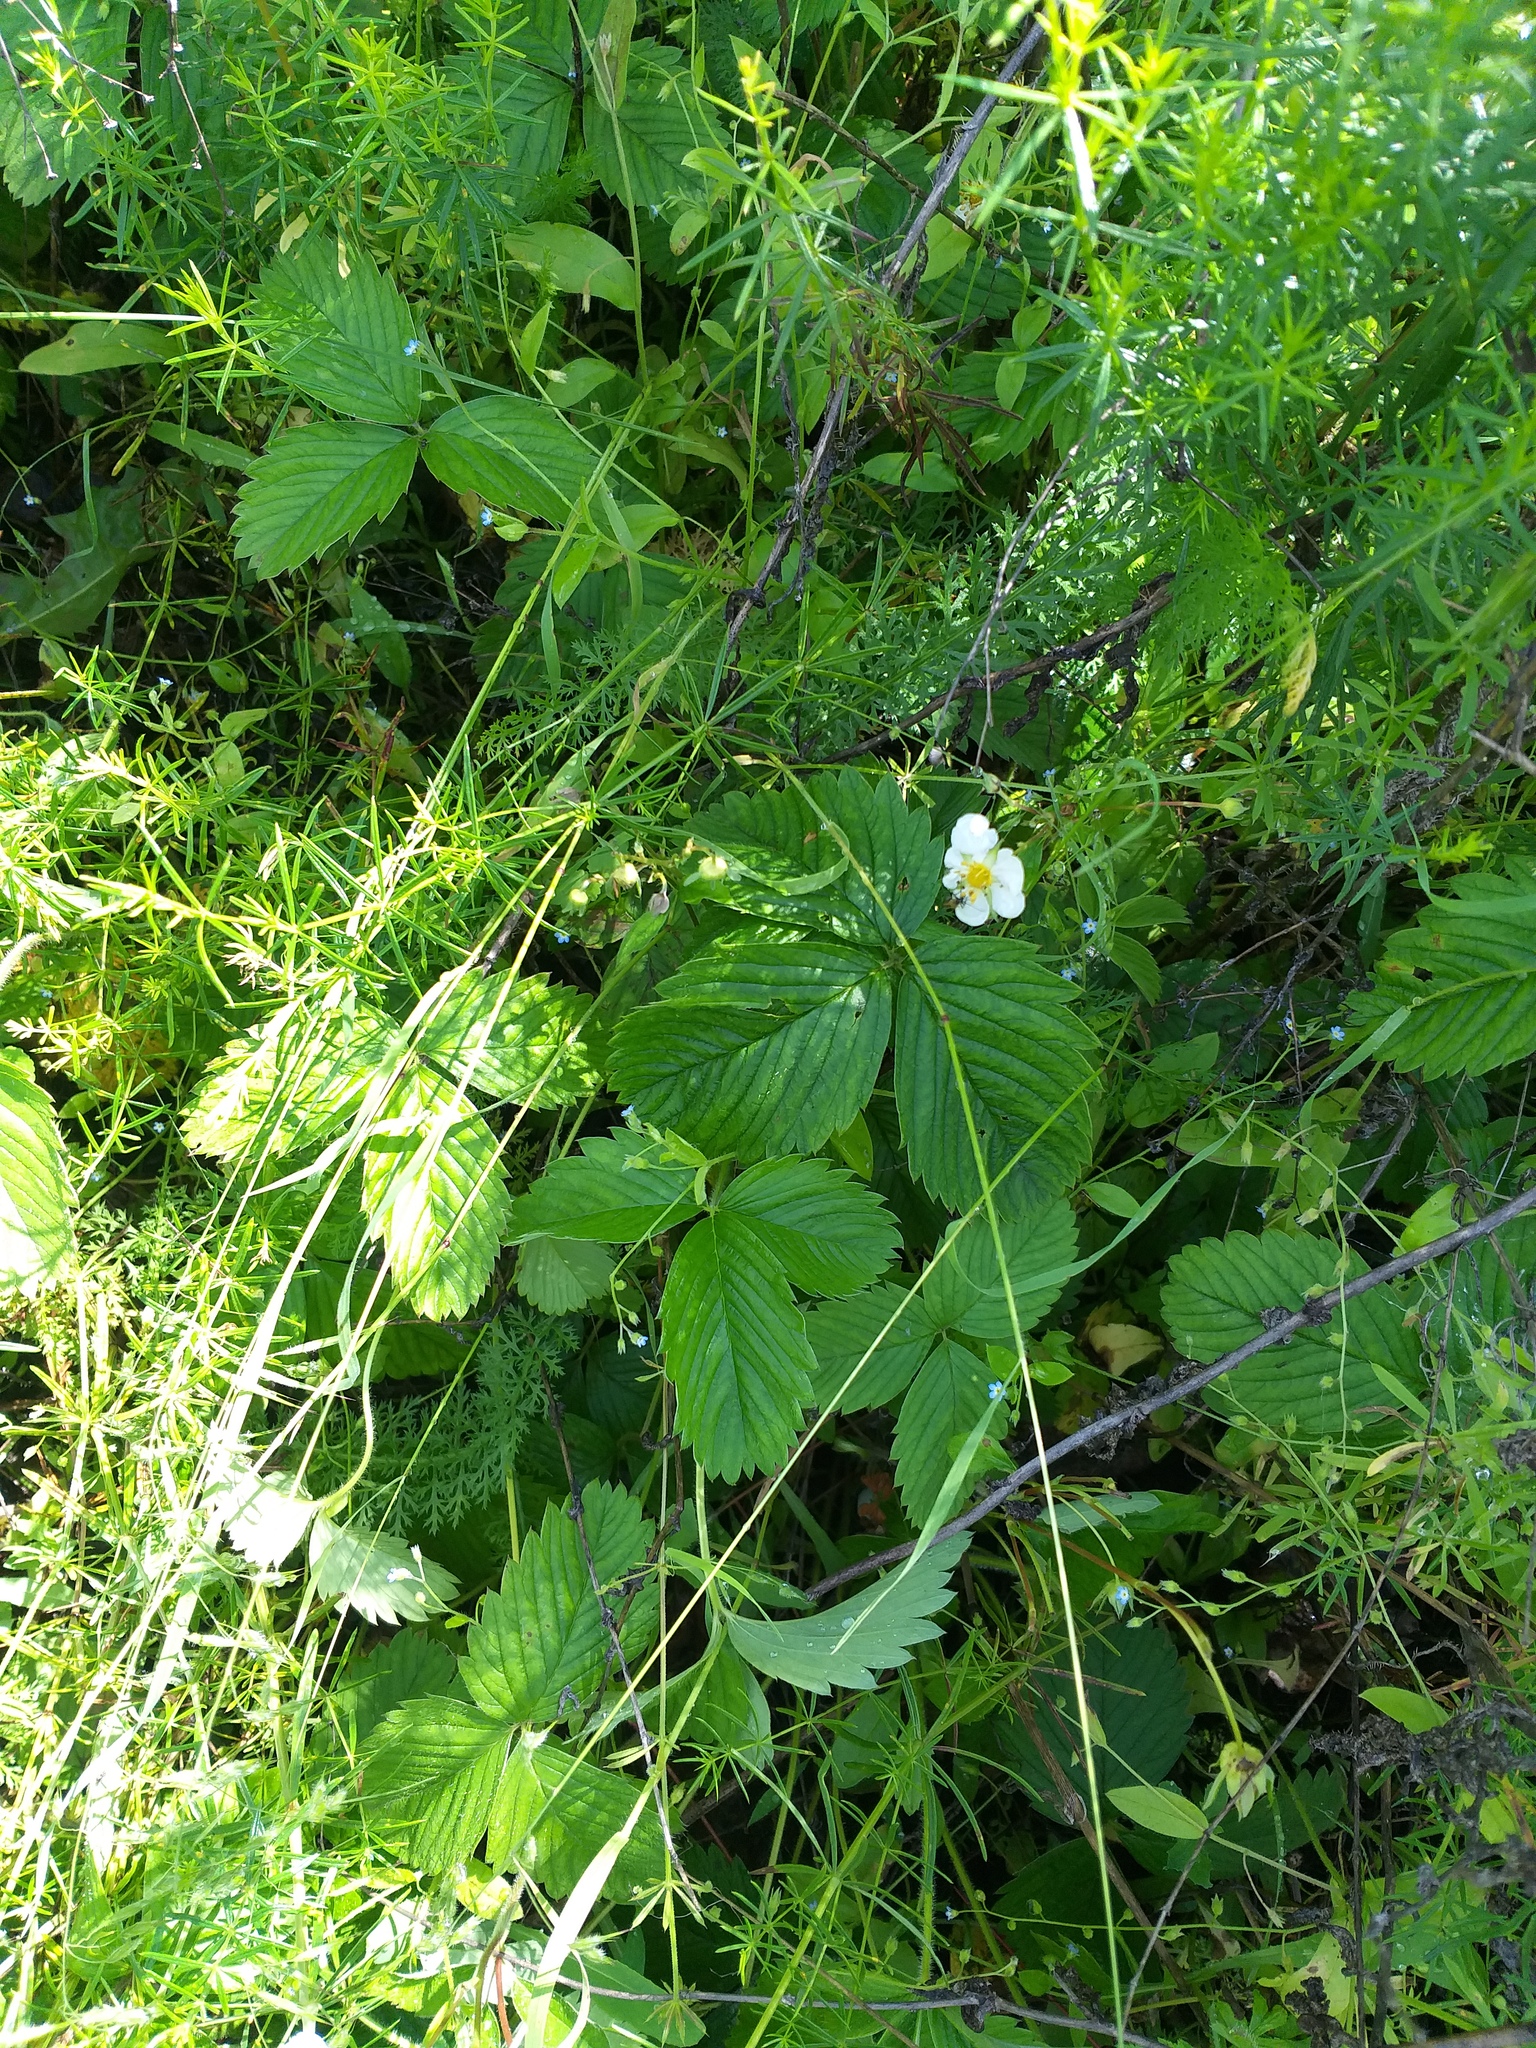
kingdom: Plantae
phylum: Tracheophyta
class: Magnoliopsida
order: Rosales
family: Rosaceae
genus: Fragaria
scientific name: Fragaria viridis
